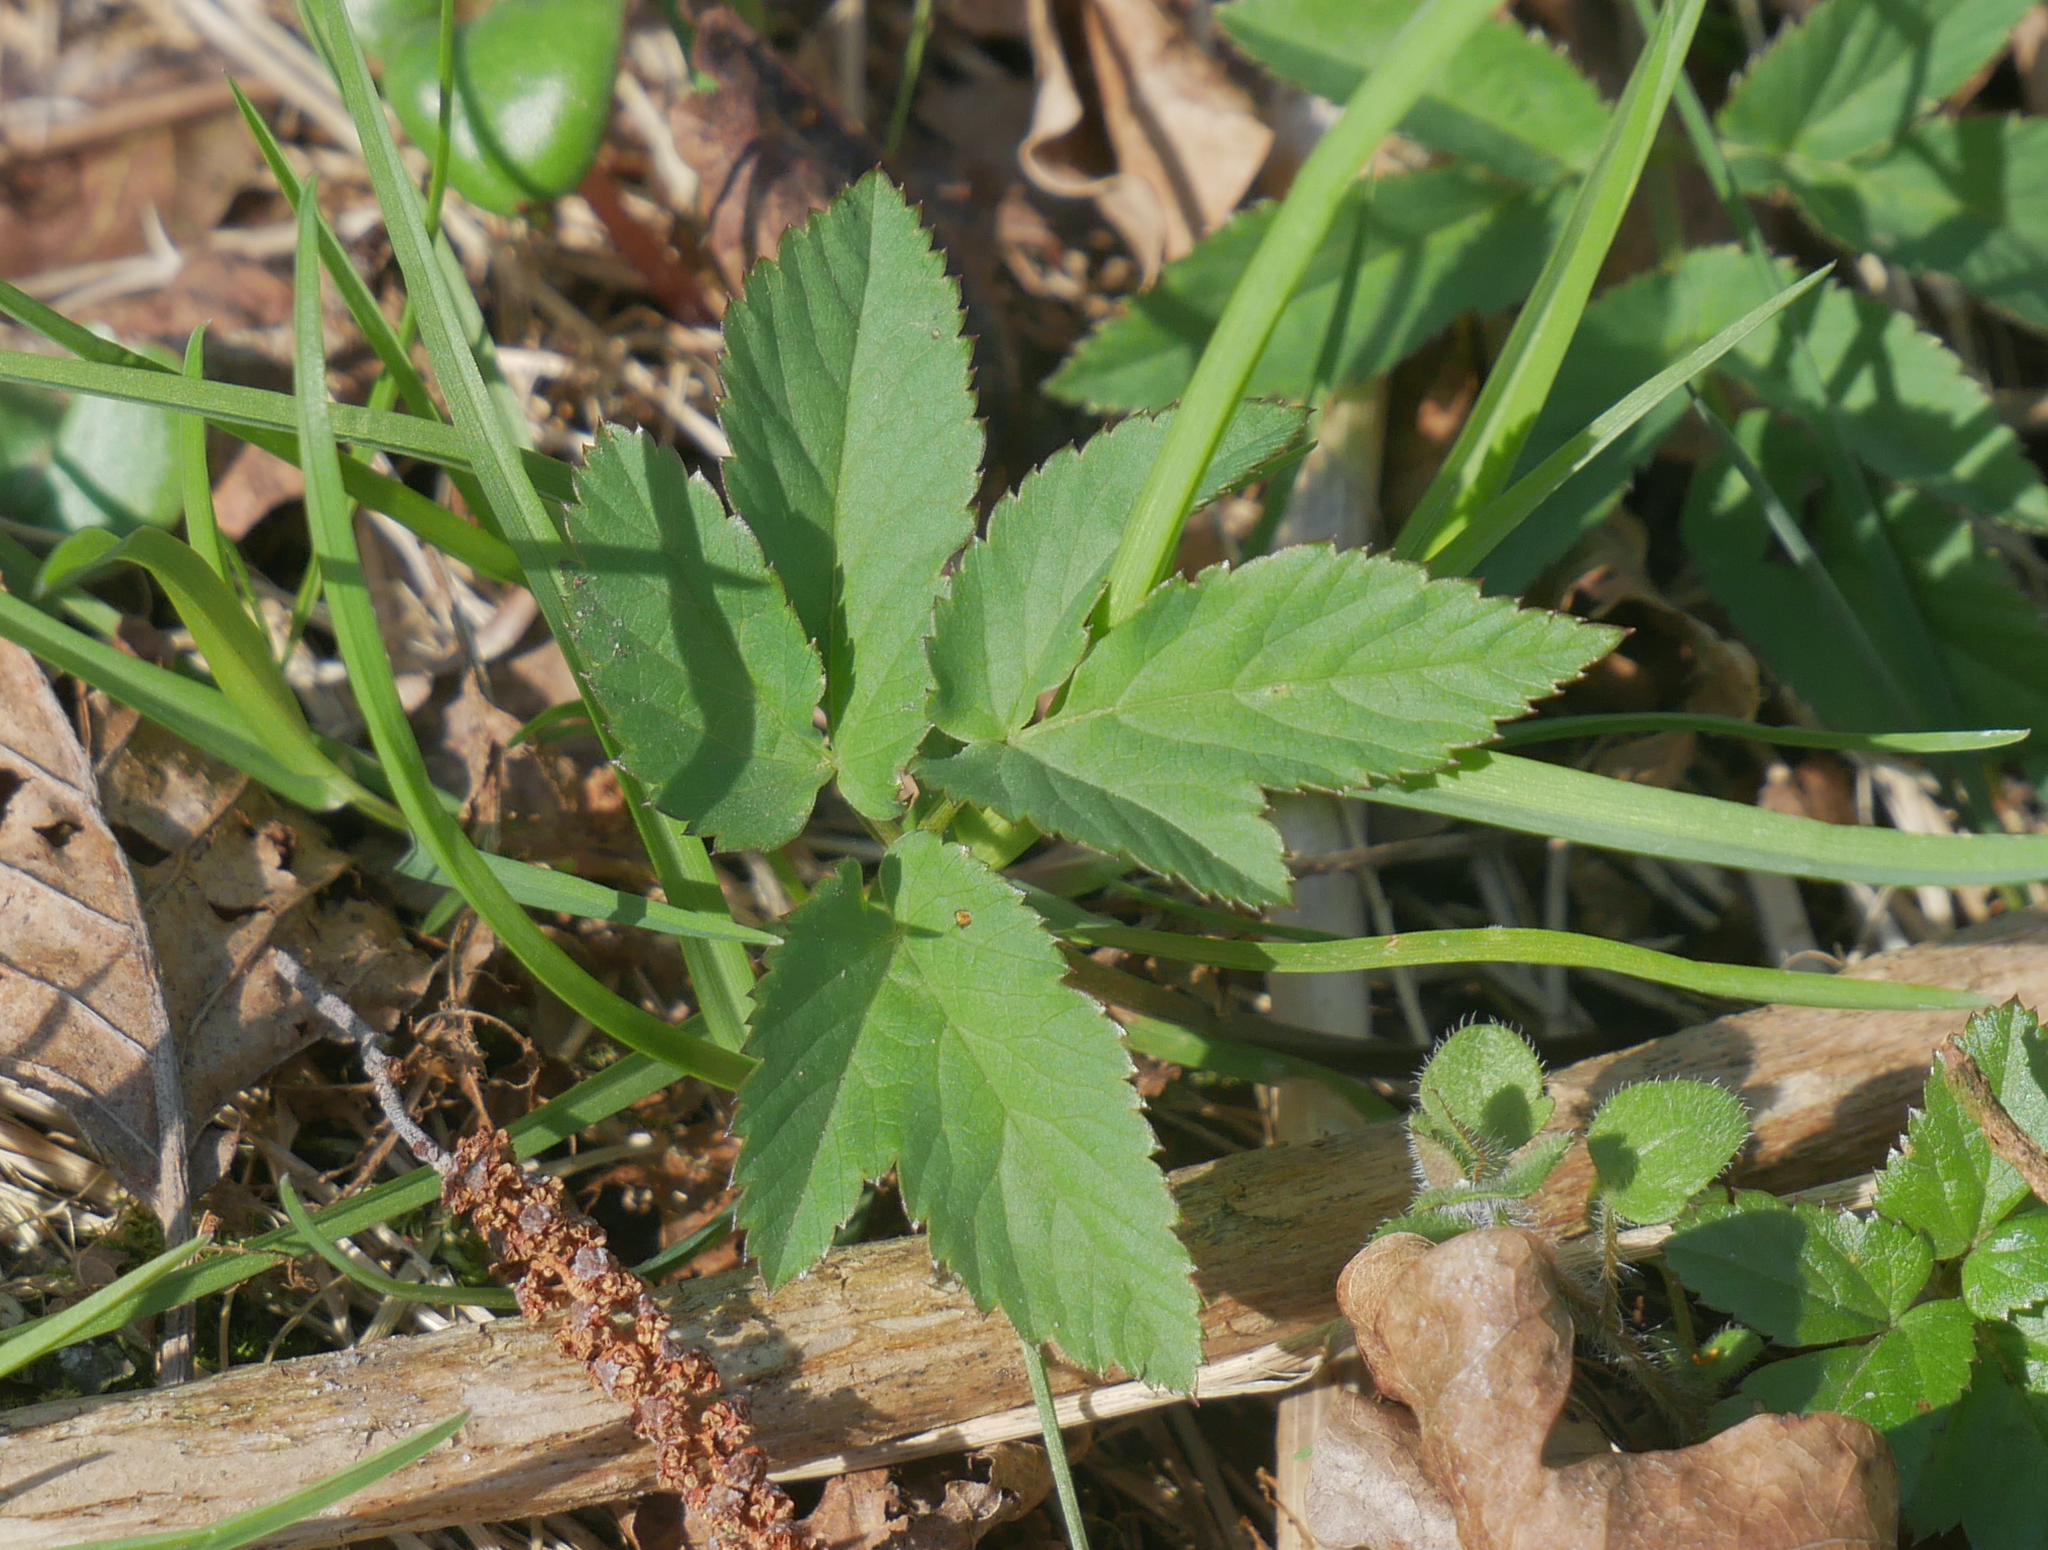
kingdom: Plantae
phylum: Tracheophyta
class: Magnoliopsida
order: Apiales
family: Apiaceae
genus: Aegopodium
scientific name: Aegopodium podagraria
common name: Ground-elder
